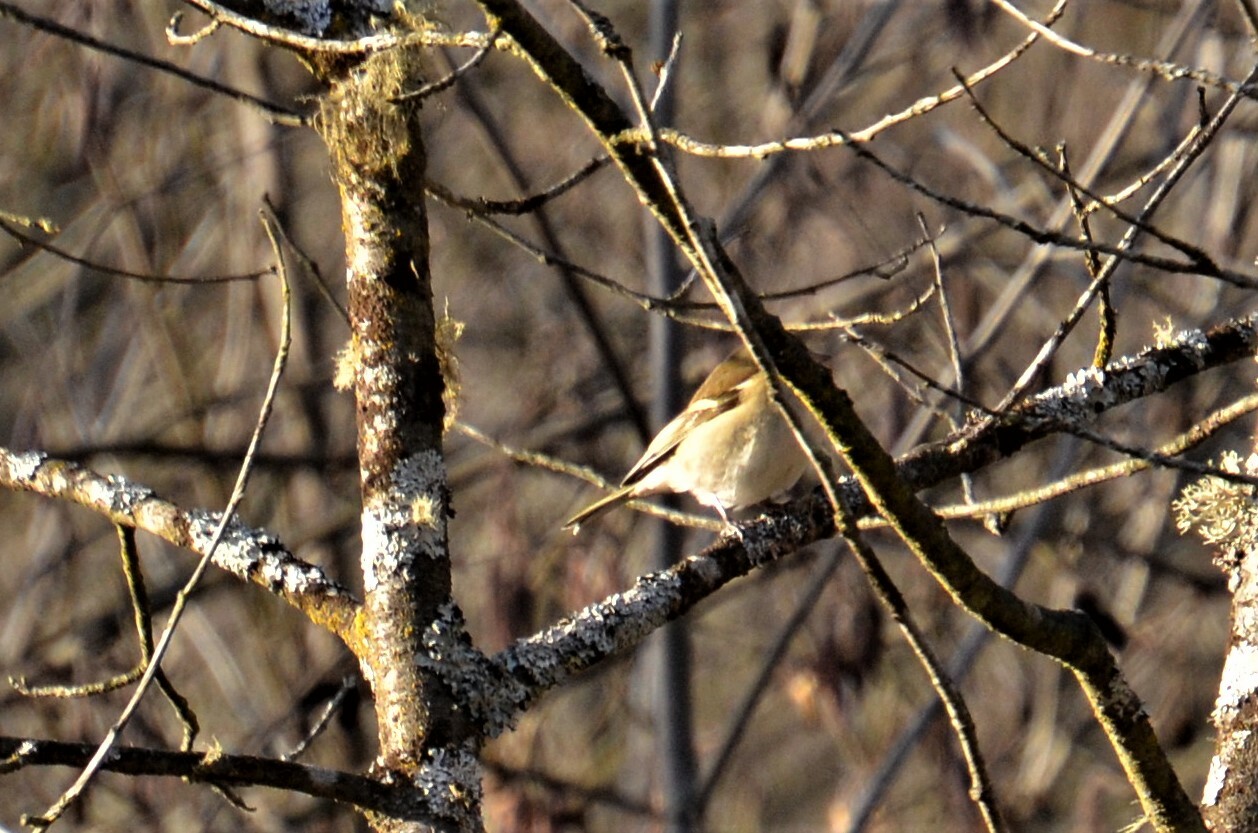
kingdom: Animalia
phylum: Chordata
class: Aves
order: Passeriformes
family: Fringillidae
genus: Fringilla
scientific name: Fringilla coelebs
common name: Common chaffinch
